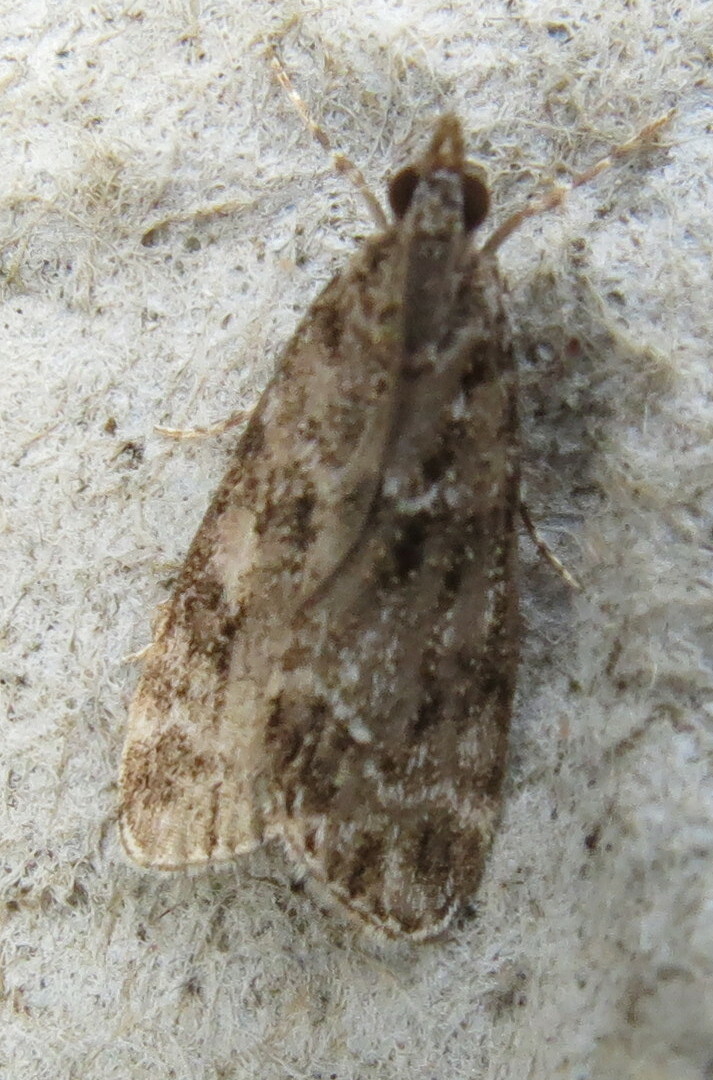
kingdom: Animalia
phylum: Arthropoda
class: Insecta
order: Lepidoptera
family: Crambidae
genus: Eudonia
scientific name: Eudonia mercurella
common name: Small grey
